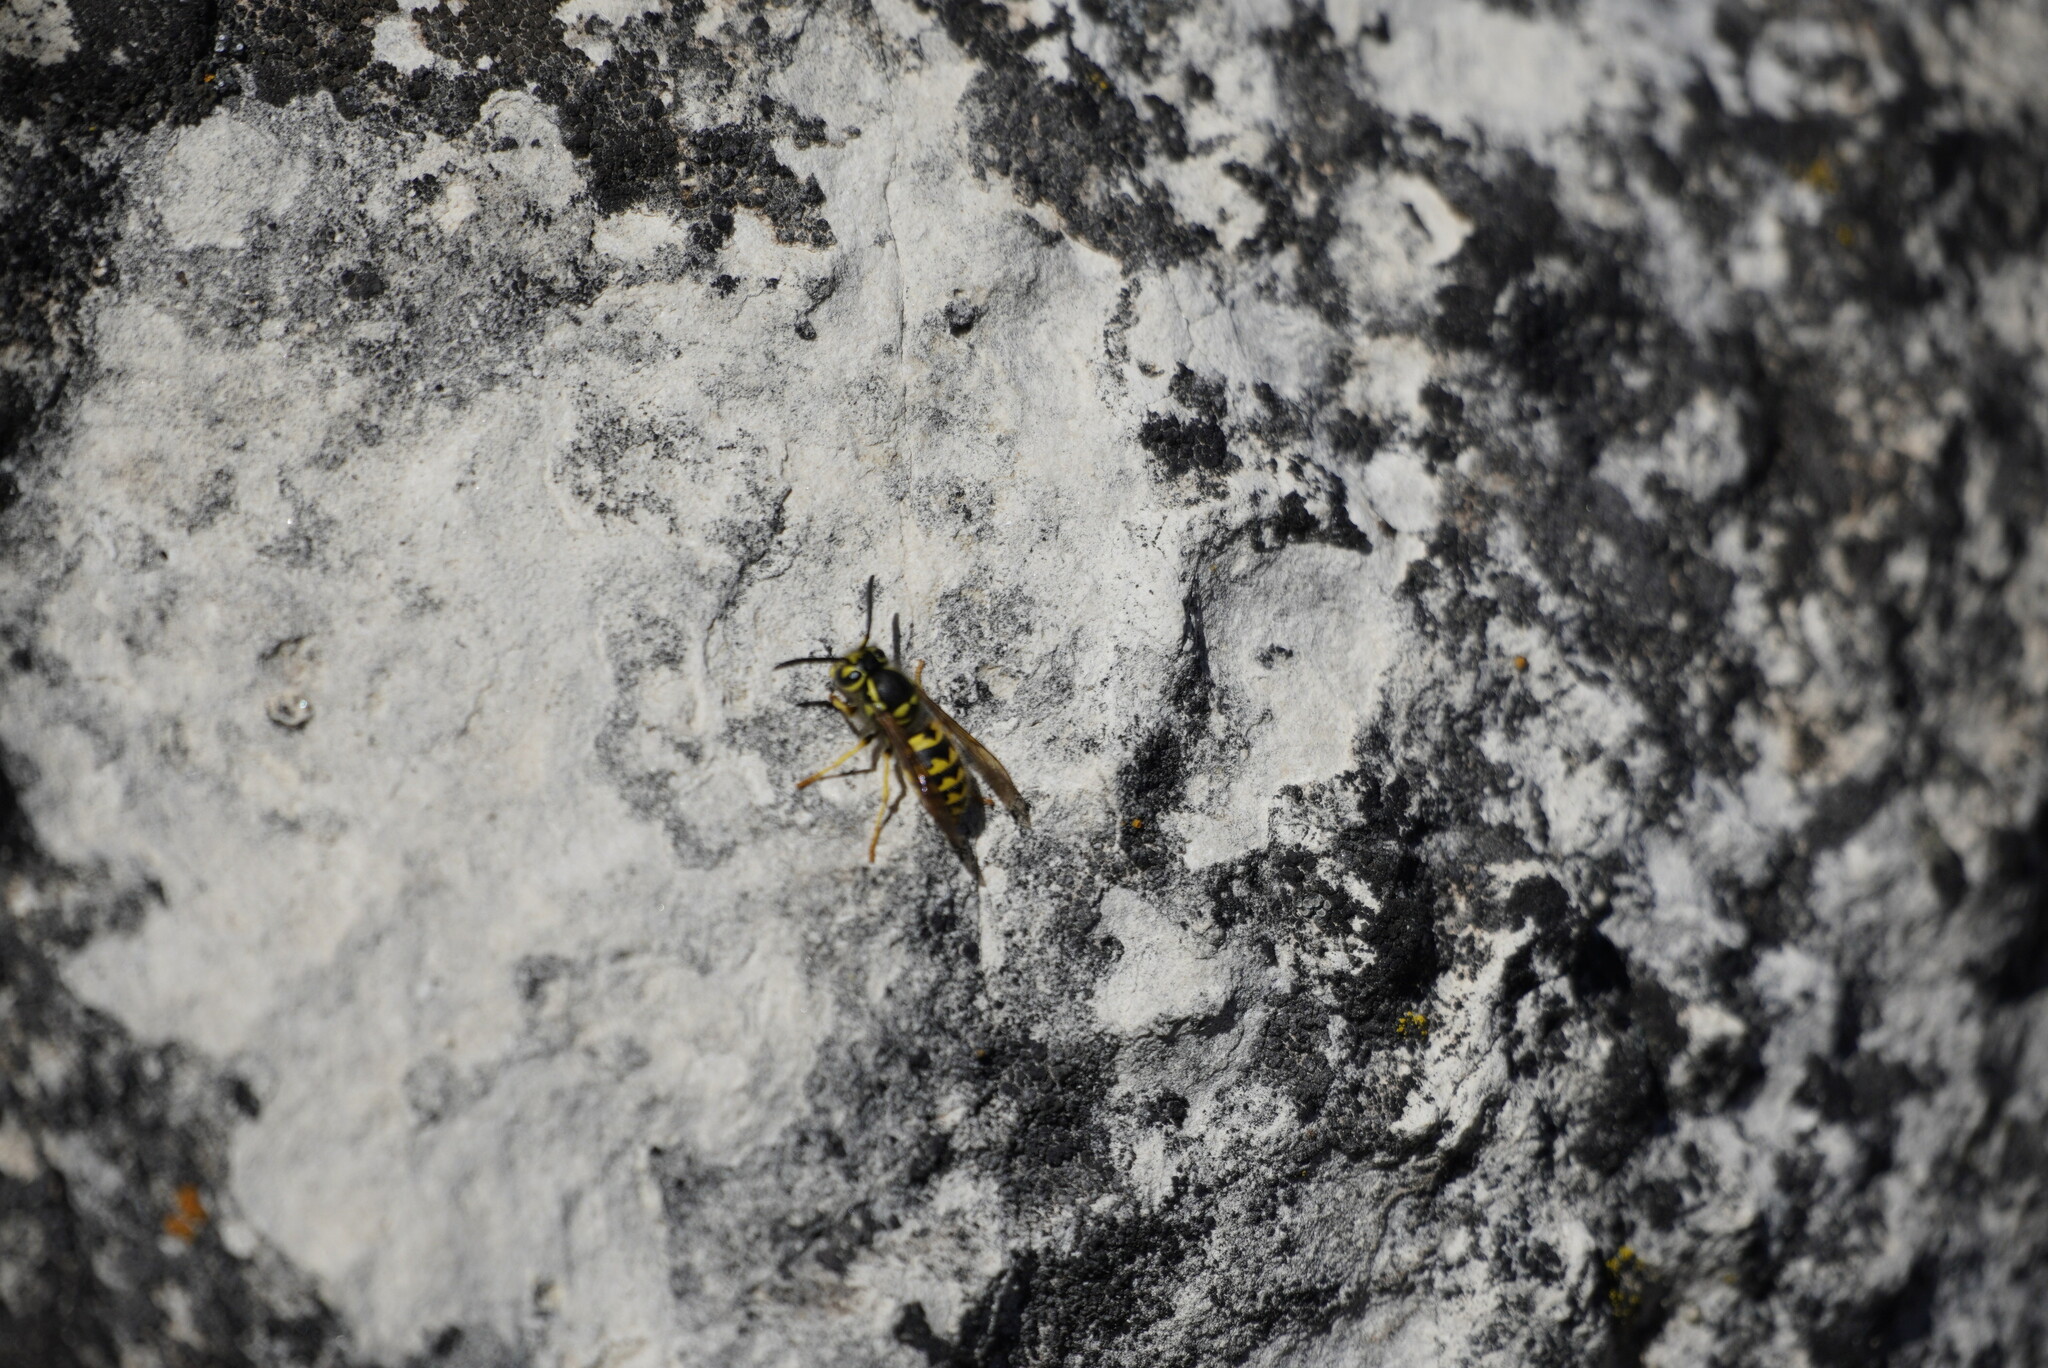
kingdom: Animalia
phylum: Arthropoda
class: Insecta
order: Hymenoptera
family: Vespidae
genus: Vespula
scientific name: Vespula pensylvanica
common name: Western yellowjacket
